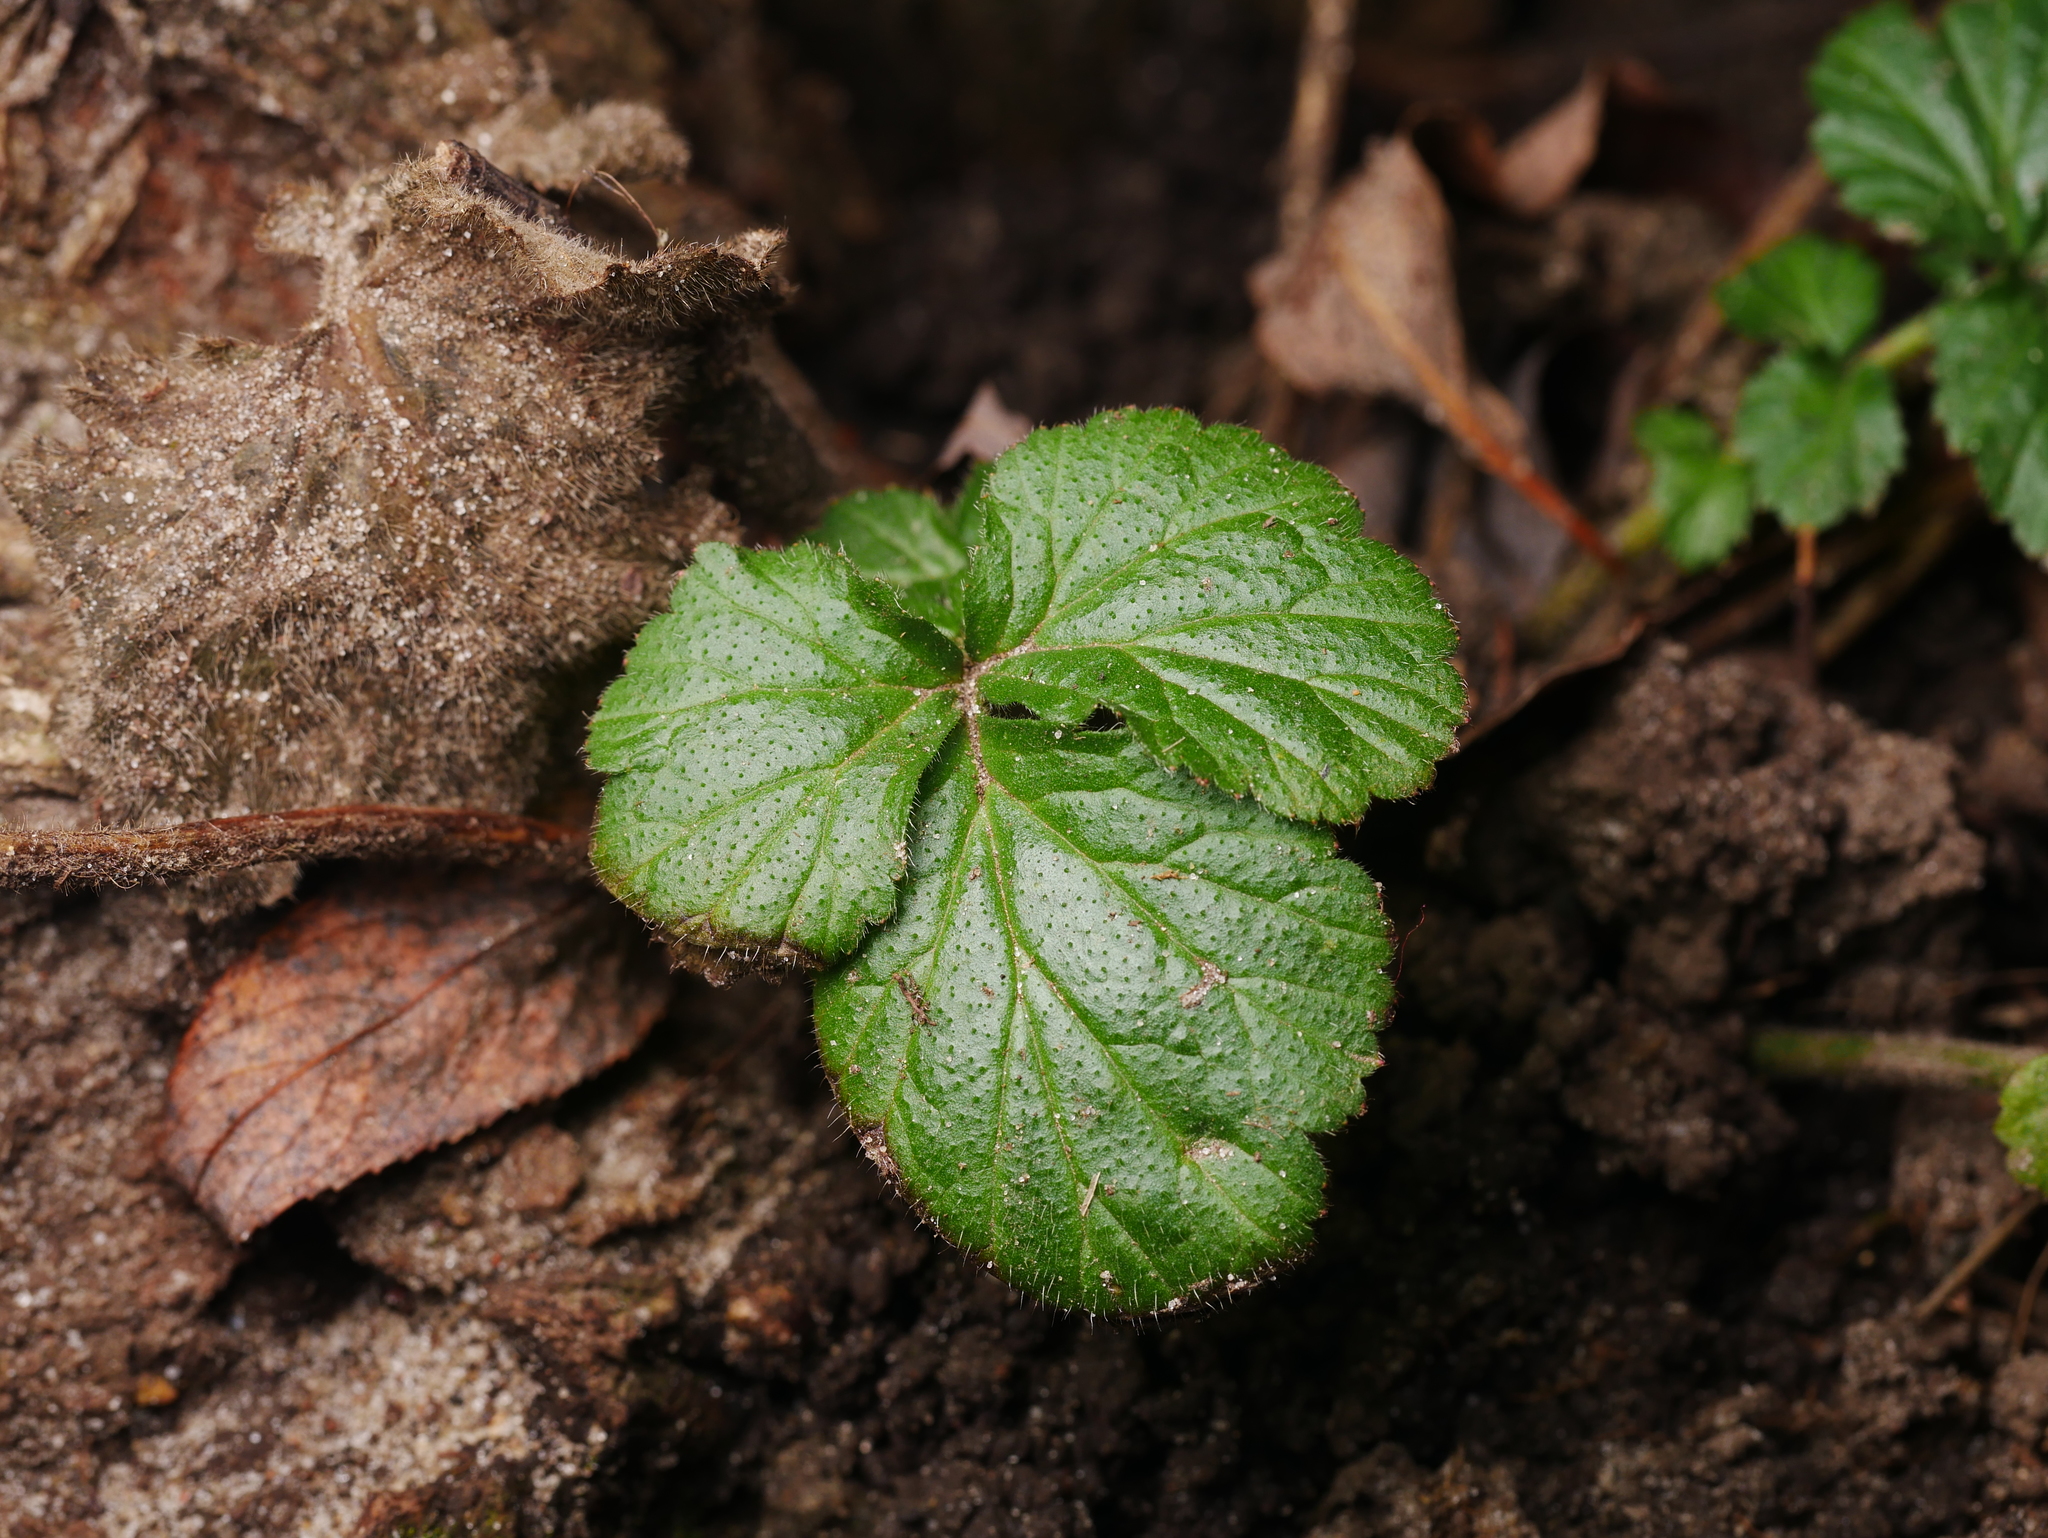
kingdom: Plantae
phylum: Tracheophyta
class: Magnoliopsida
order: Rosales
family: Rosaceae
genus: Geum
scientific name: Geum urbanum
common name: Wood avens
